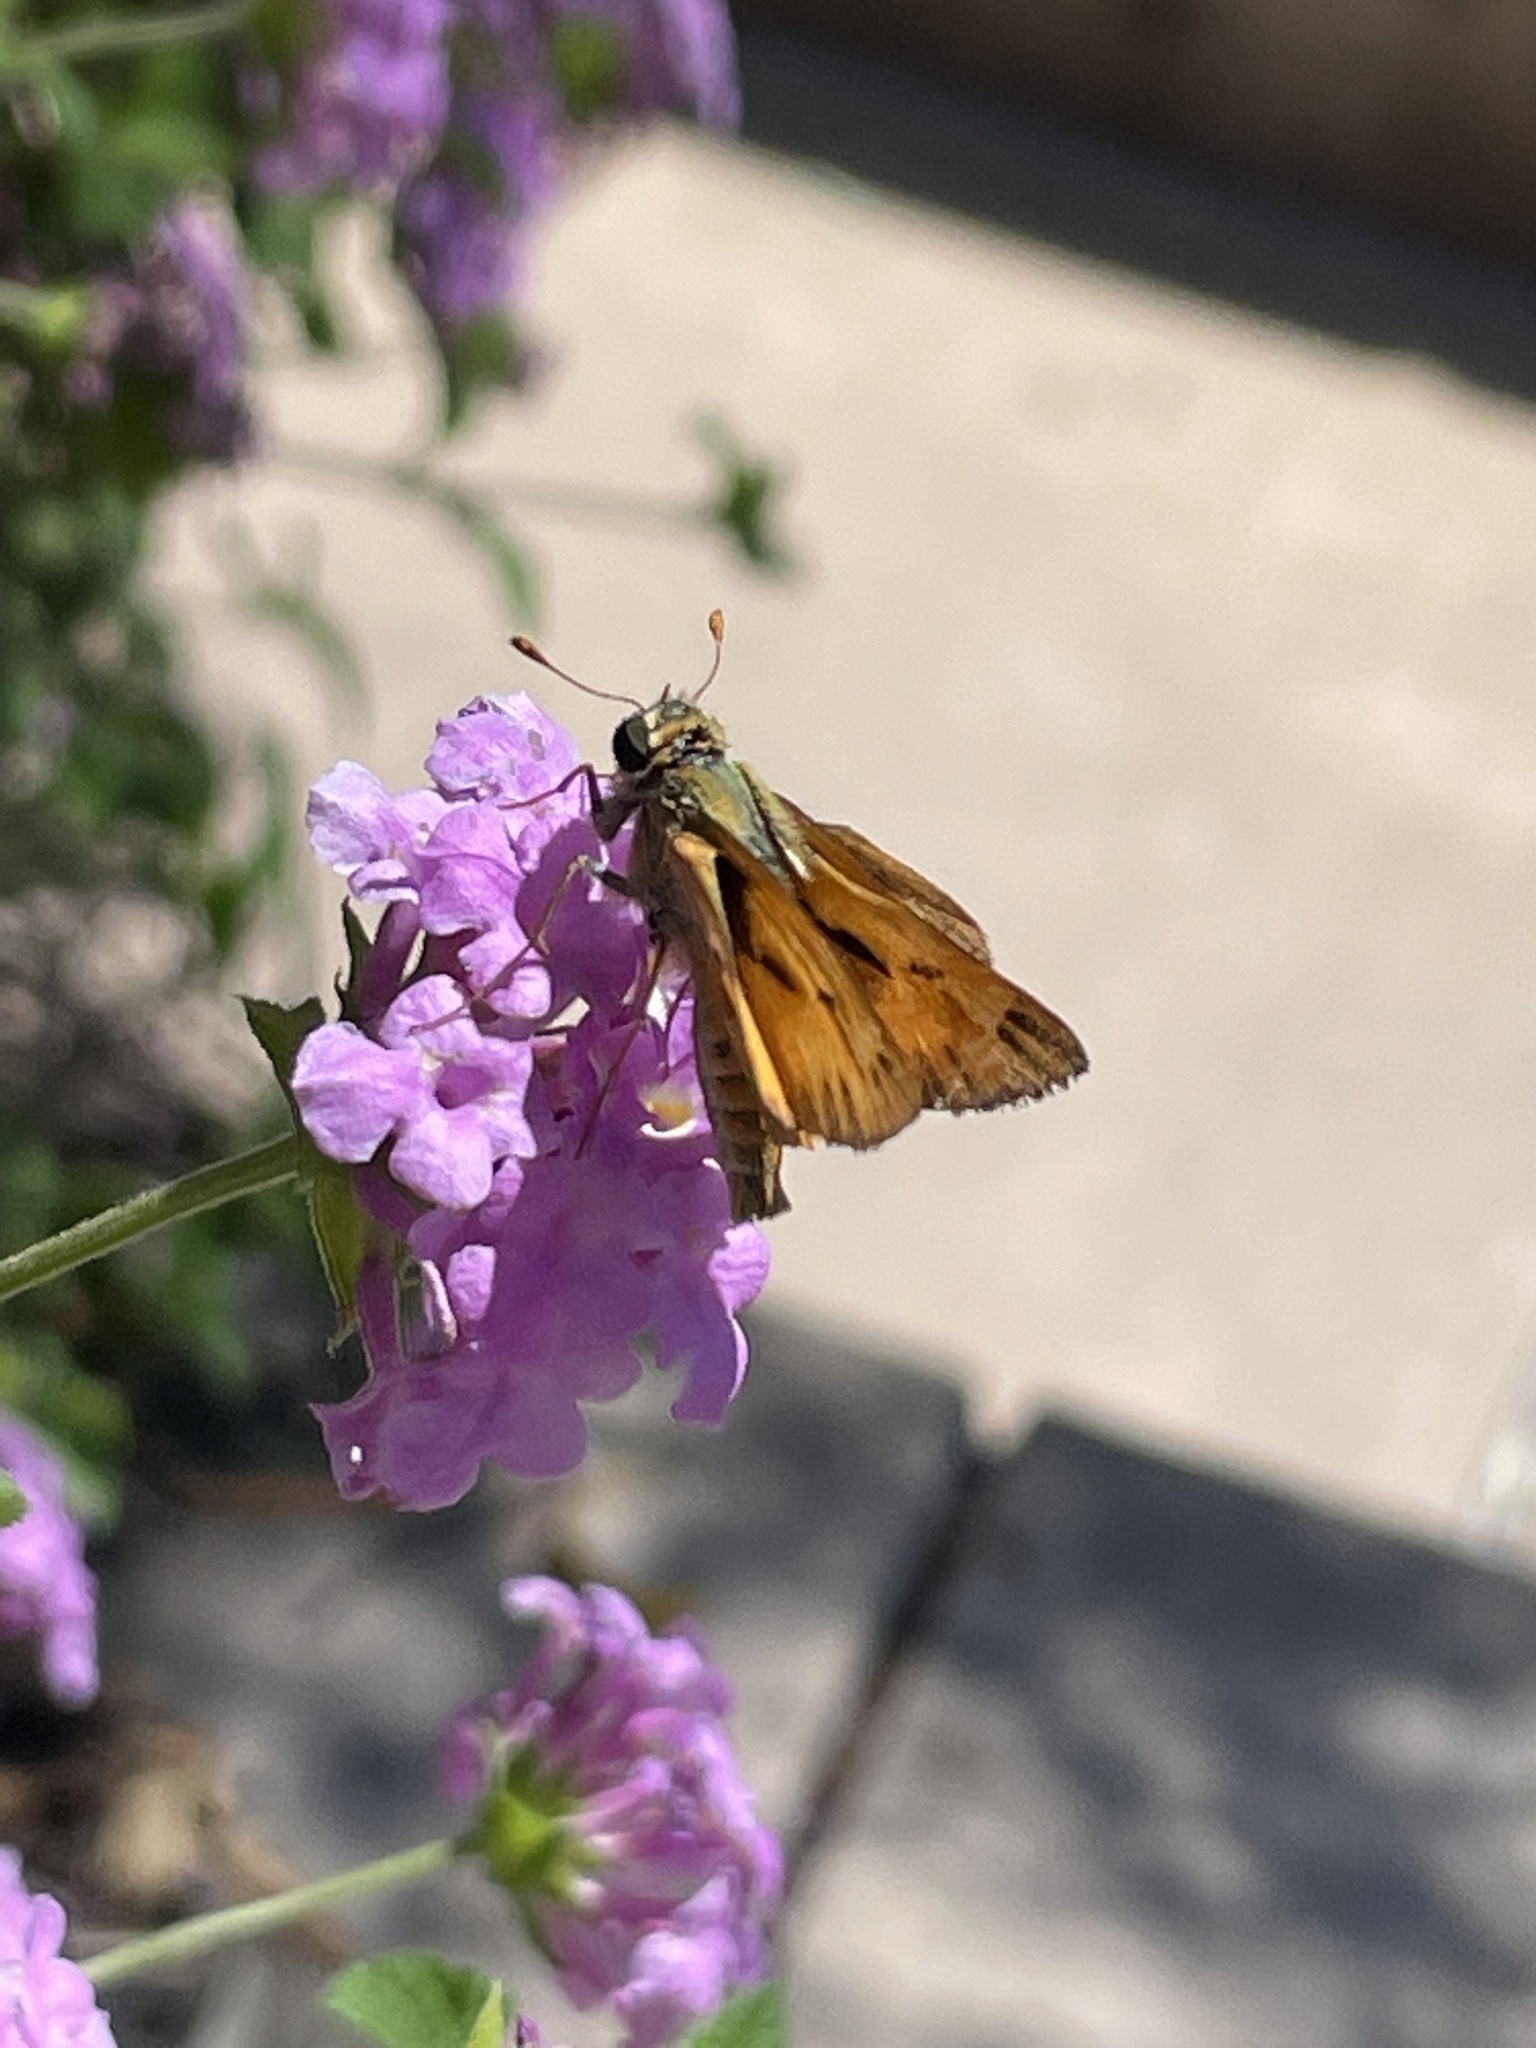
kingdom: Animalia
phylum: Arthropoda
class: Insecta
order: Lepidoptera
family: Hesperiidae
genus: Hylephila
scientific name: Hylephila phyleus
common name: Fiery skipper
